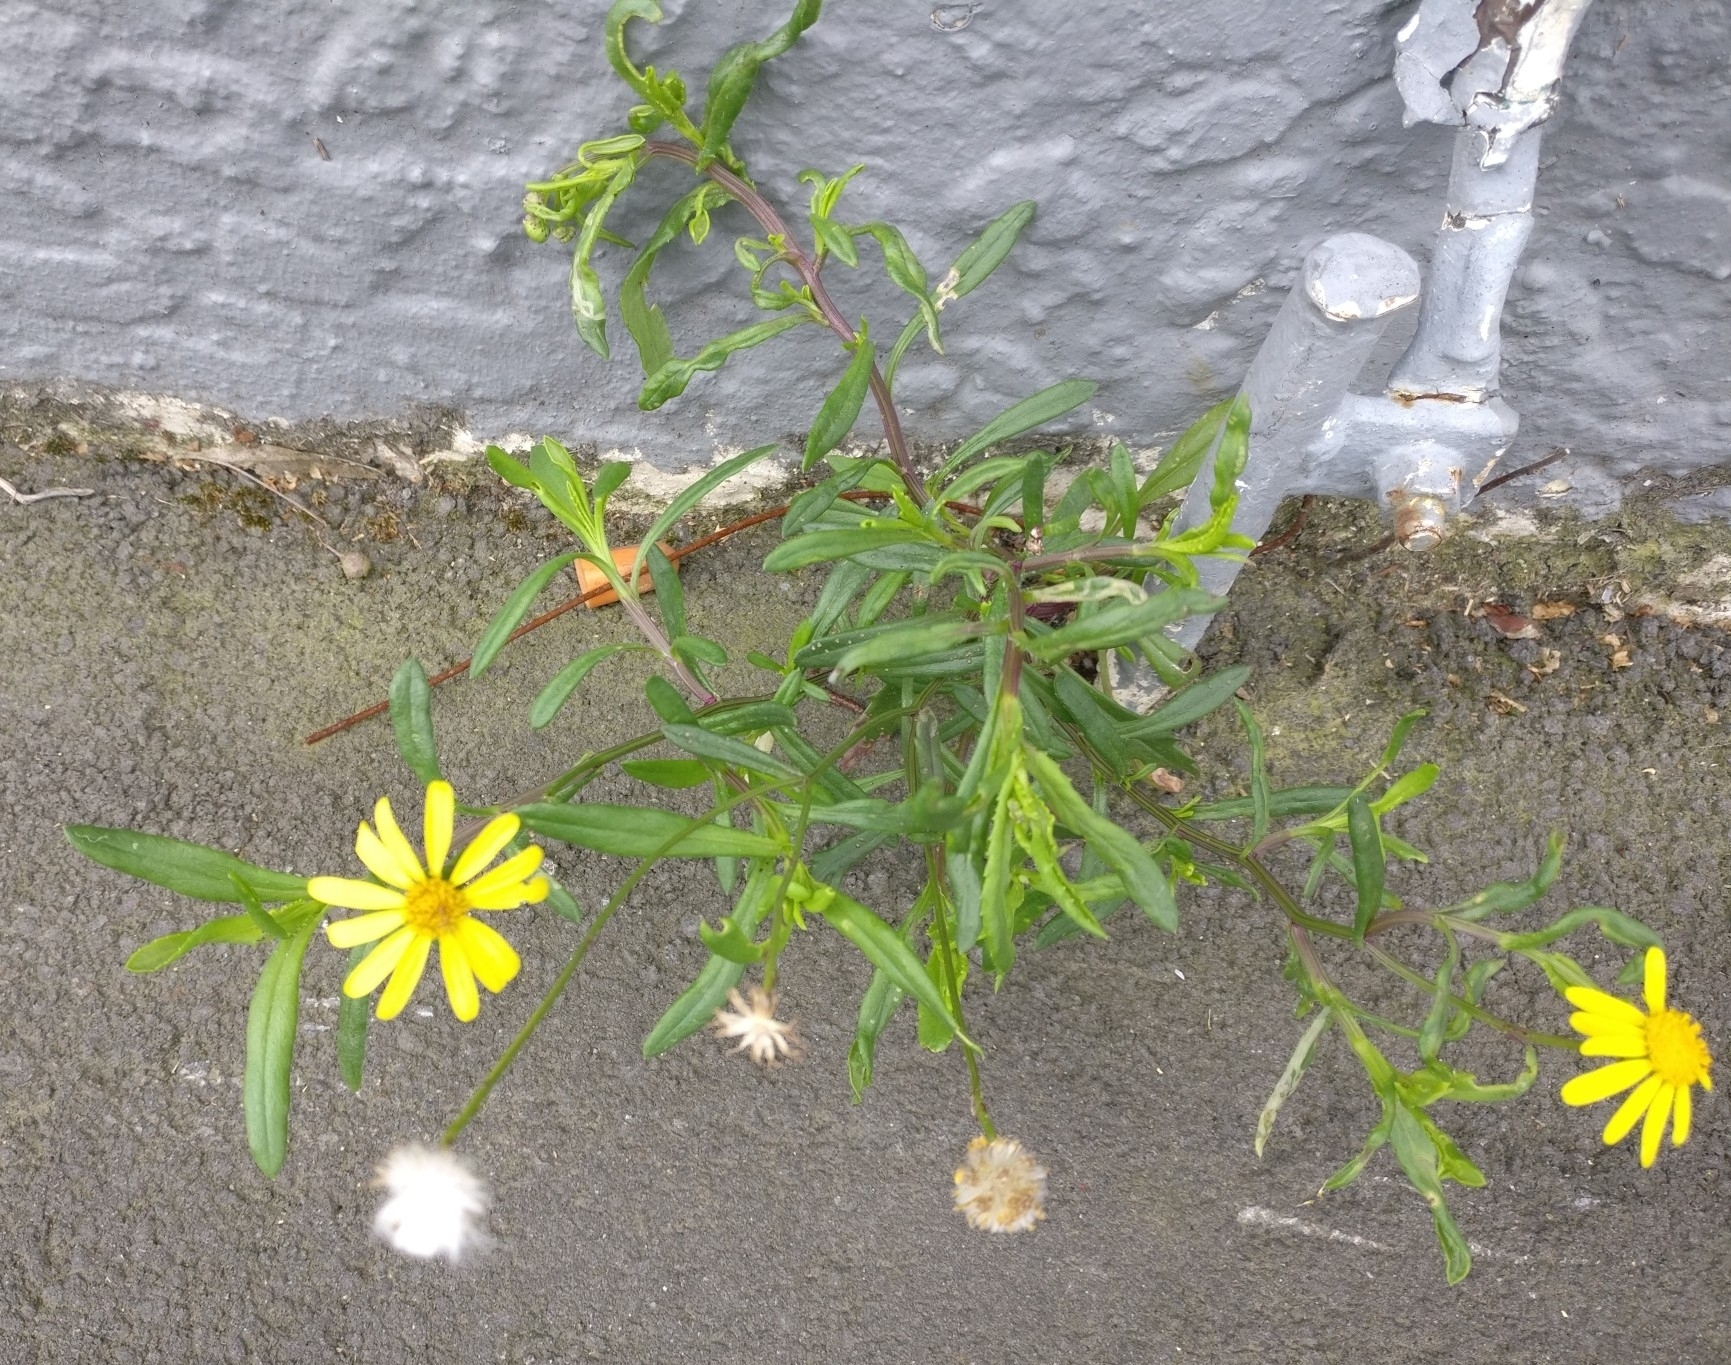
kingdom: Plantae
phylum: Tracheophyta
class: Magnoliopsida
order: Asterales
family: Asteraceae
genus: Senecio
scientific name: Senecio skirrhodon
